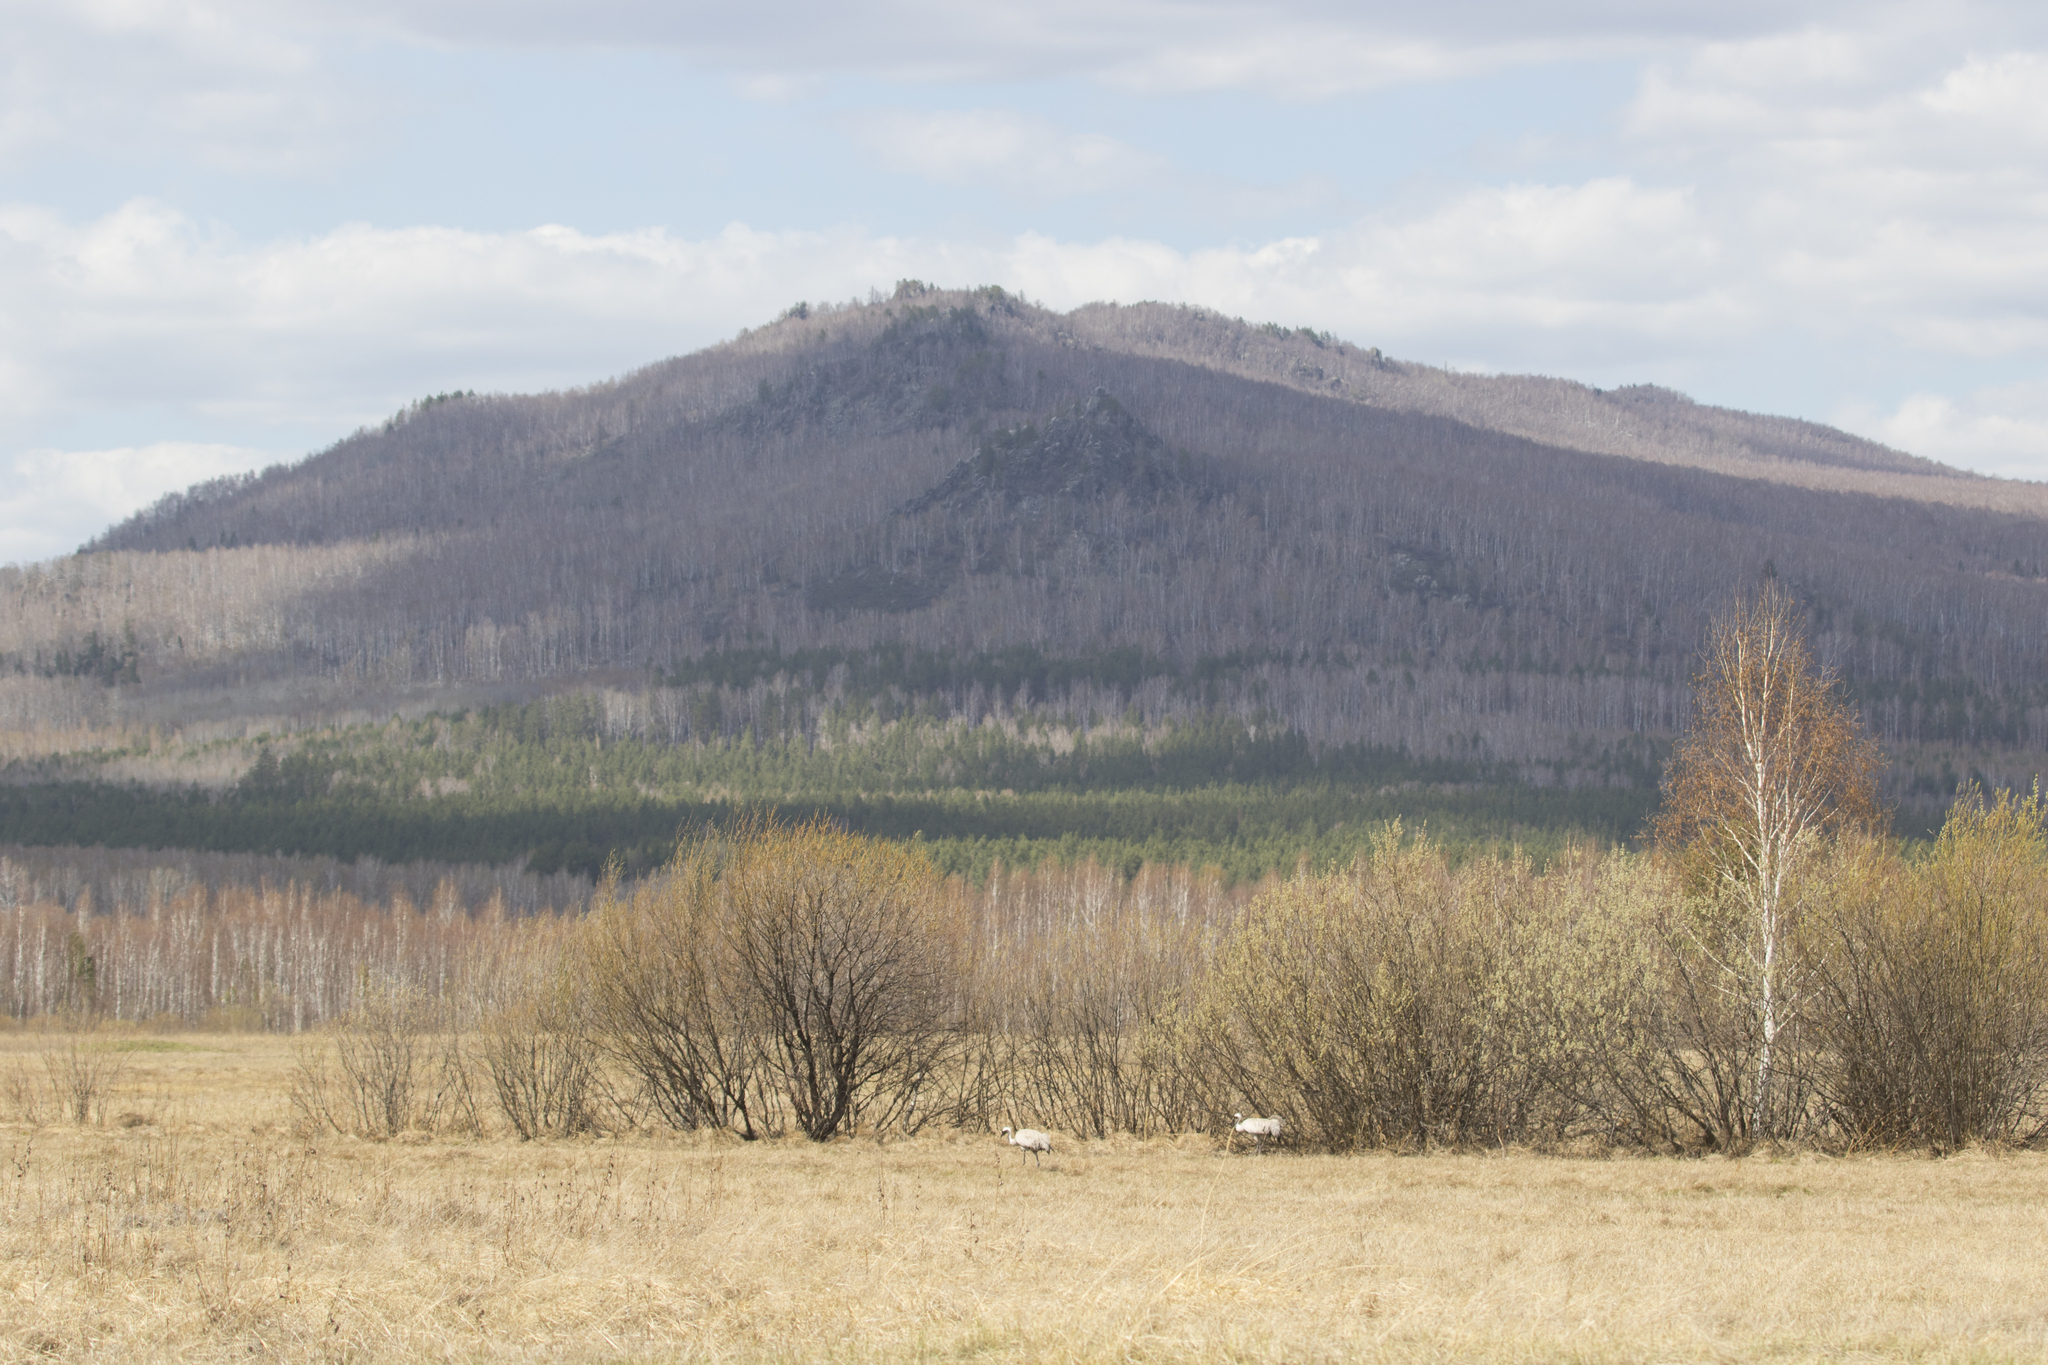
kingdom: Animalia
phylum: Chordata
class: Aves
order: Gruiformes
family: Gruidae
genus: Grus
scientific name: Grus grus
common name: Common crane
